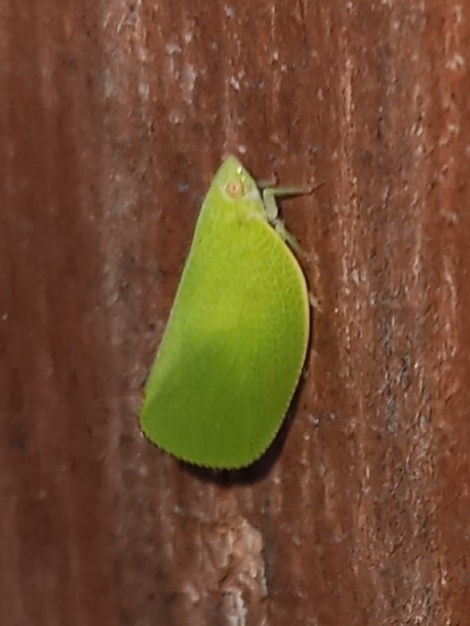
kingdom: Animalia
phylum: Arthropoda
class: Insecta
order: Hemiptera
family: Acanaloniidae
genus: Acanalonia
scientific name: Acanalonia conica
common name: Green cone-headed planthopper
